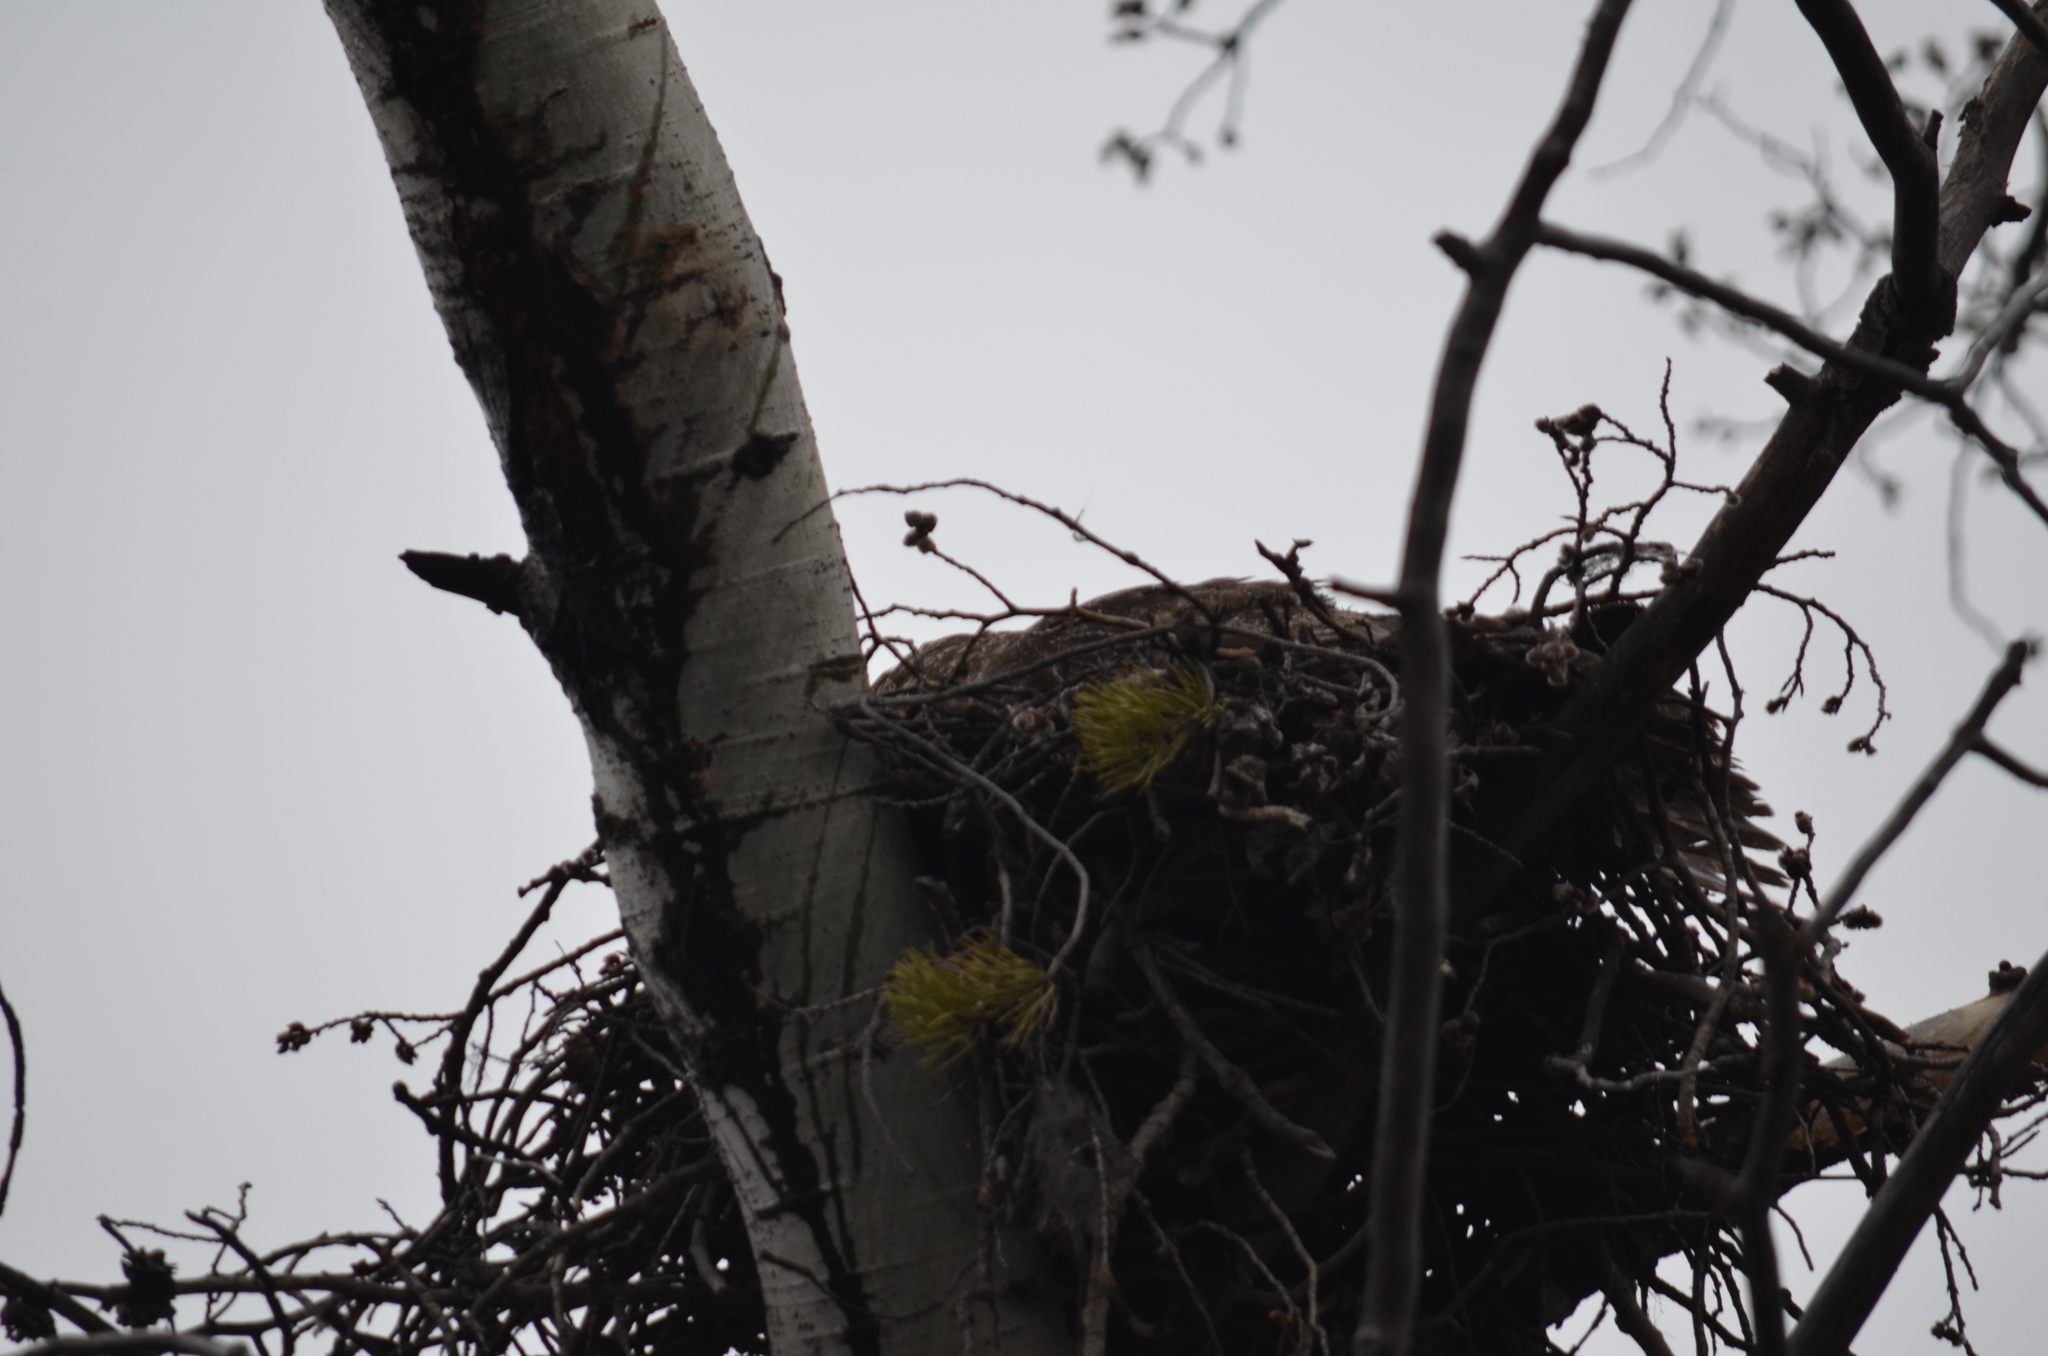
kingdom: Plantae
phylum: Tracheophyta
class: Magnoliopsida
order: Malpighiales
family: Salicaceae
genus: Populus
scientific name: Populus tremuloides
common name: Quaking aspen
